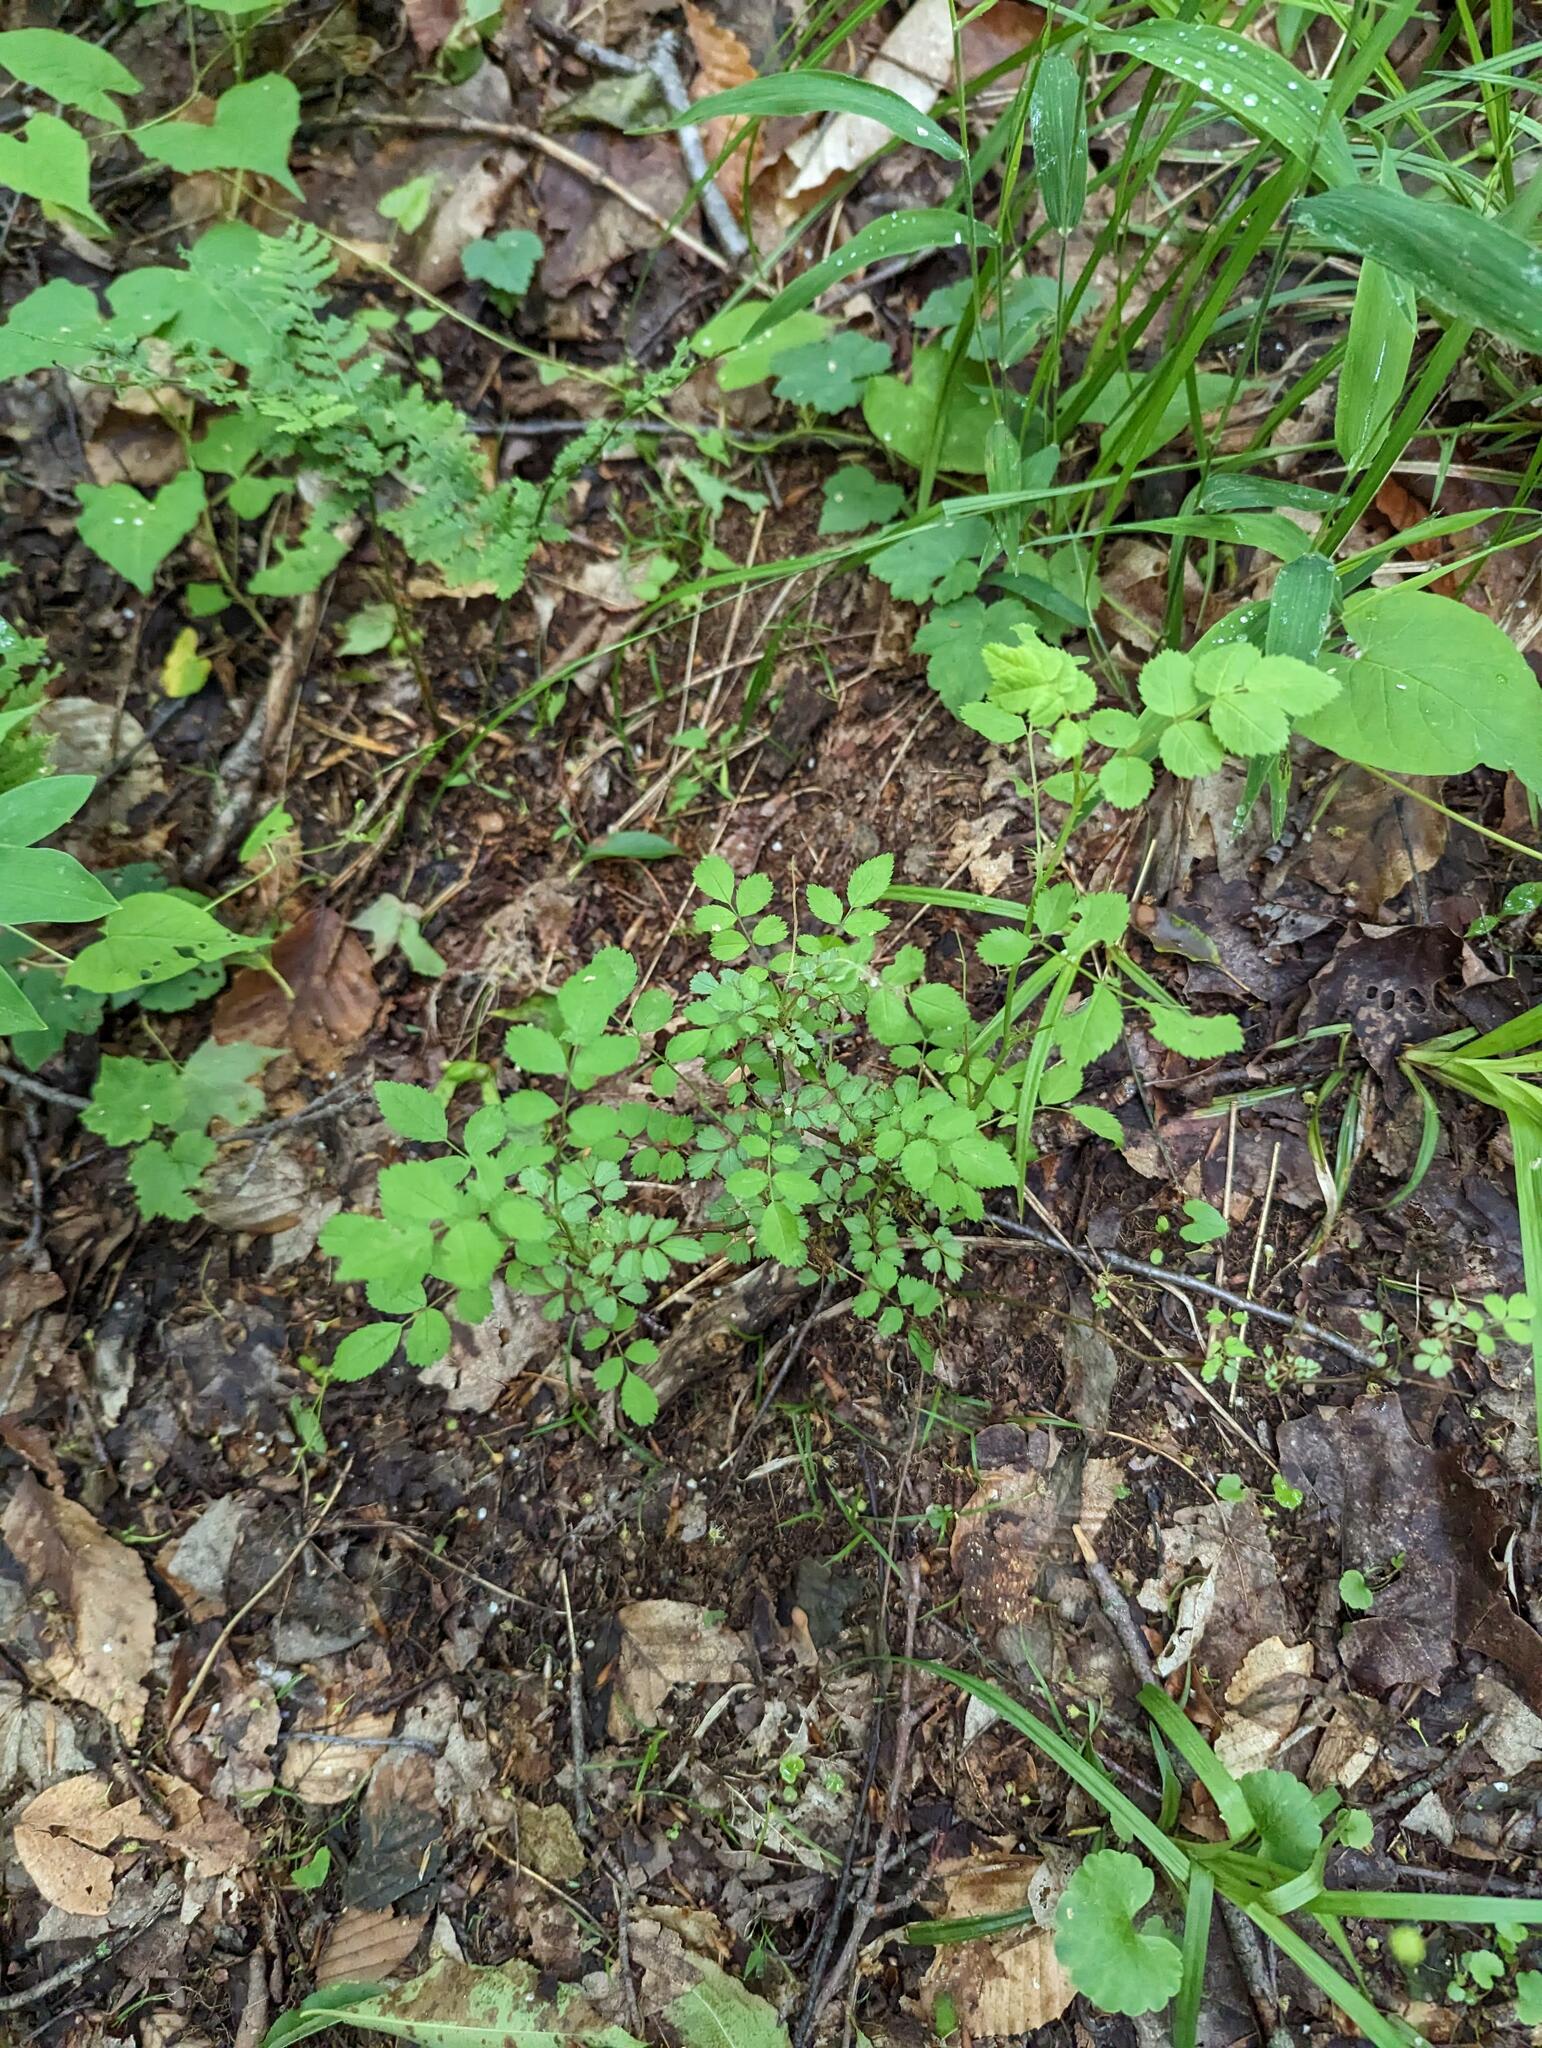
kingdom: Plantae
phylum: Tracheophyta
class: Magnoliopsida
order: Rosales
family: Rosaceae
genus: Rosa
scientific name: Rosa multiflora
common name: Multiflora rose
